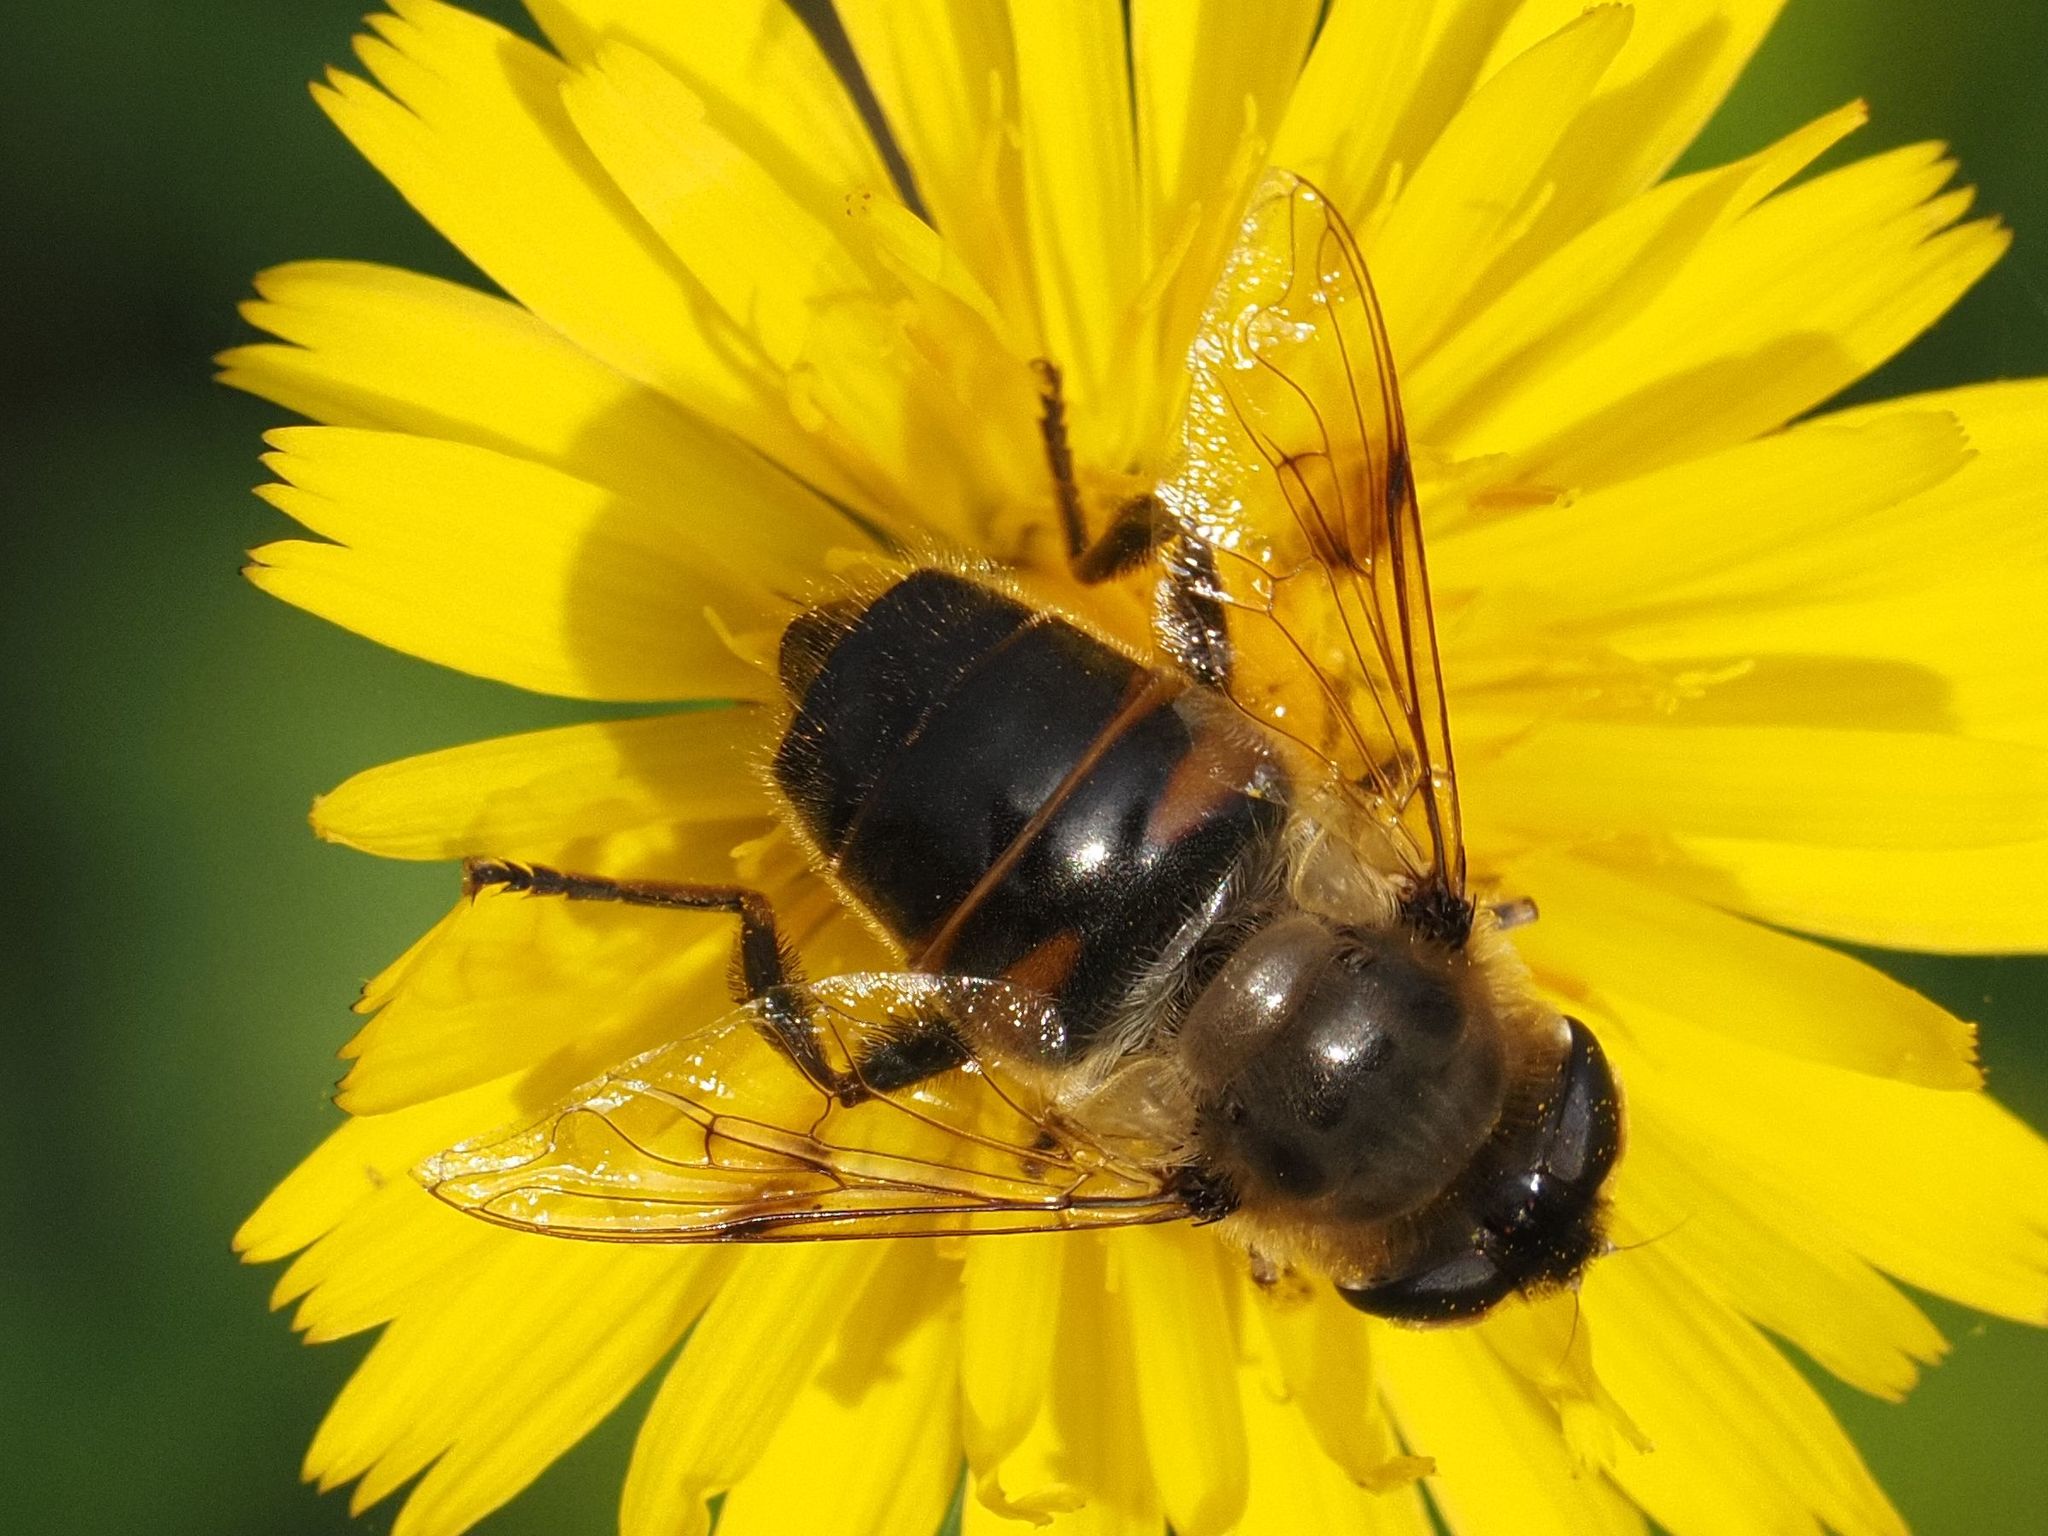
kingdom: Animalia
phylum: Arthropoda
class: Insecta
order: Diptera
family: Syrphidae
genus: Eristalis
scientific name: Eristalis tenax
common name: Drone fly
